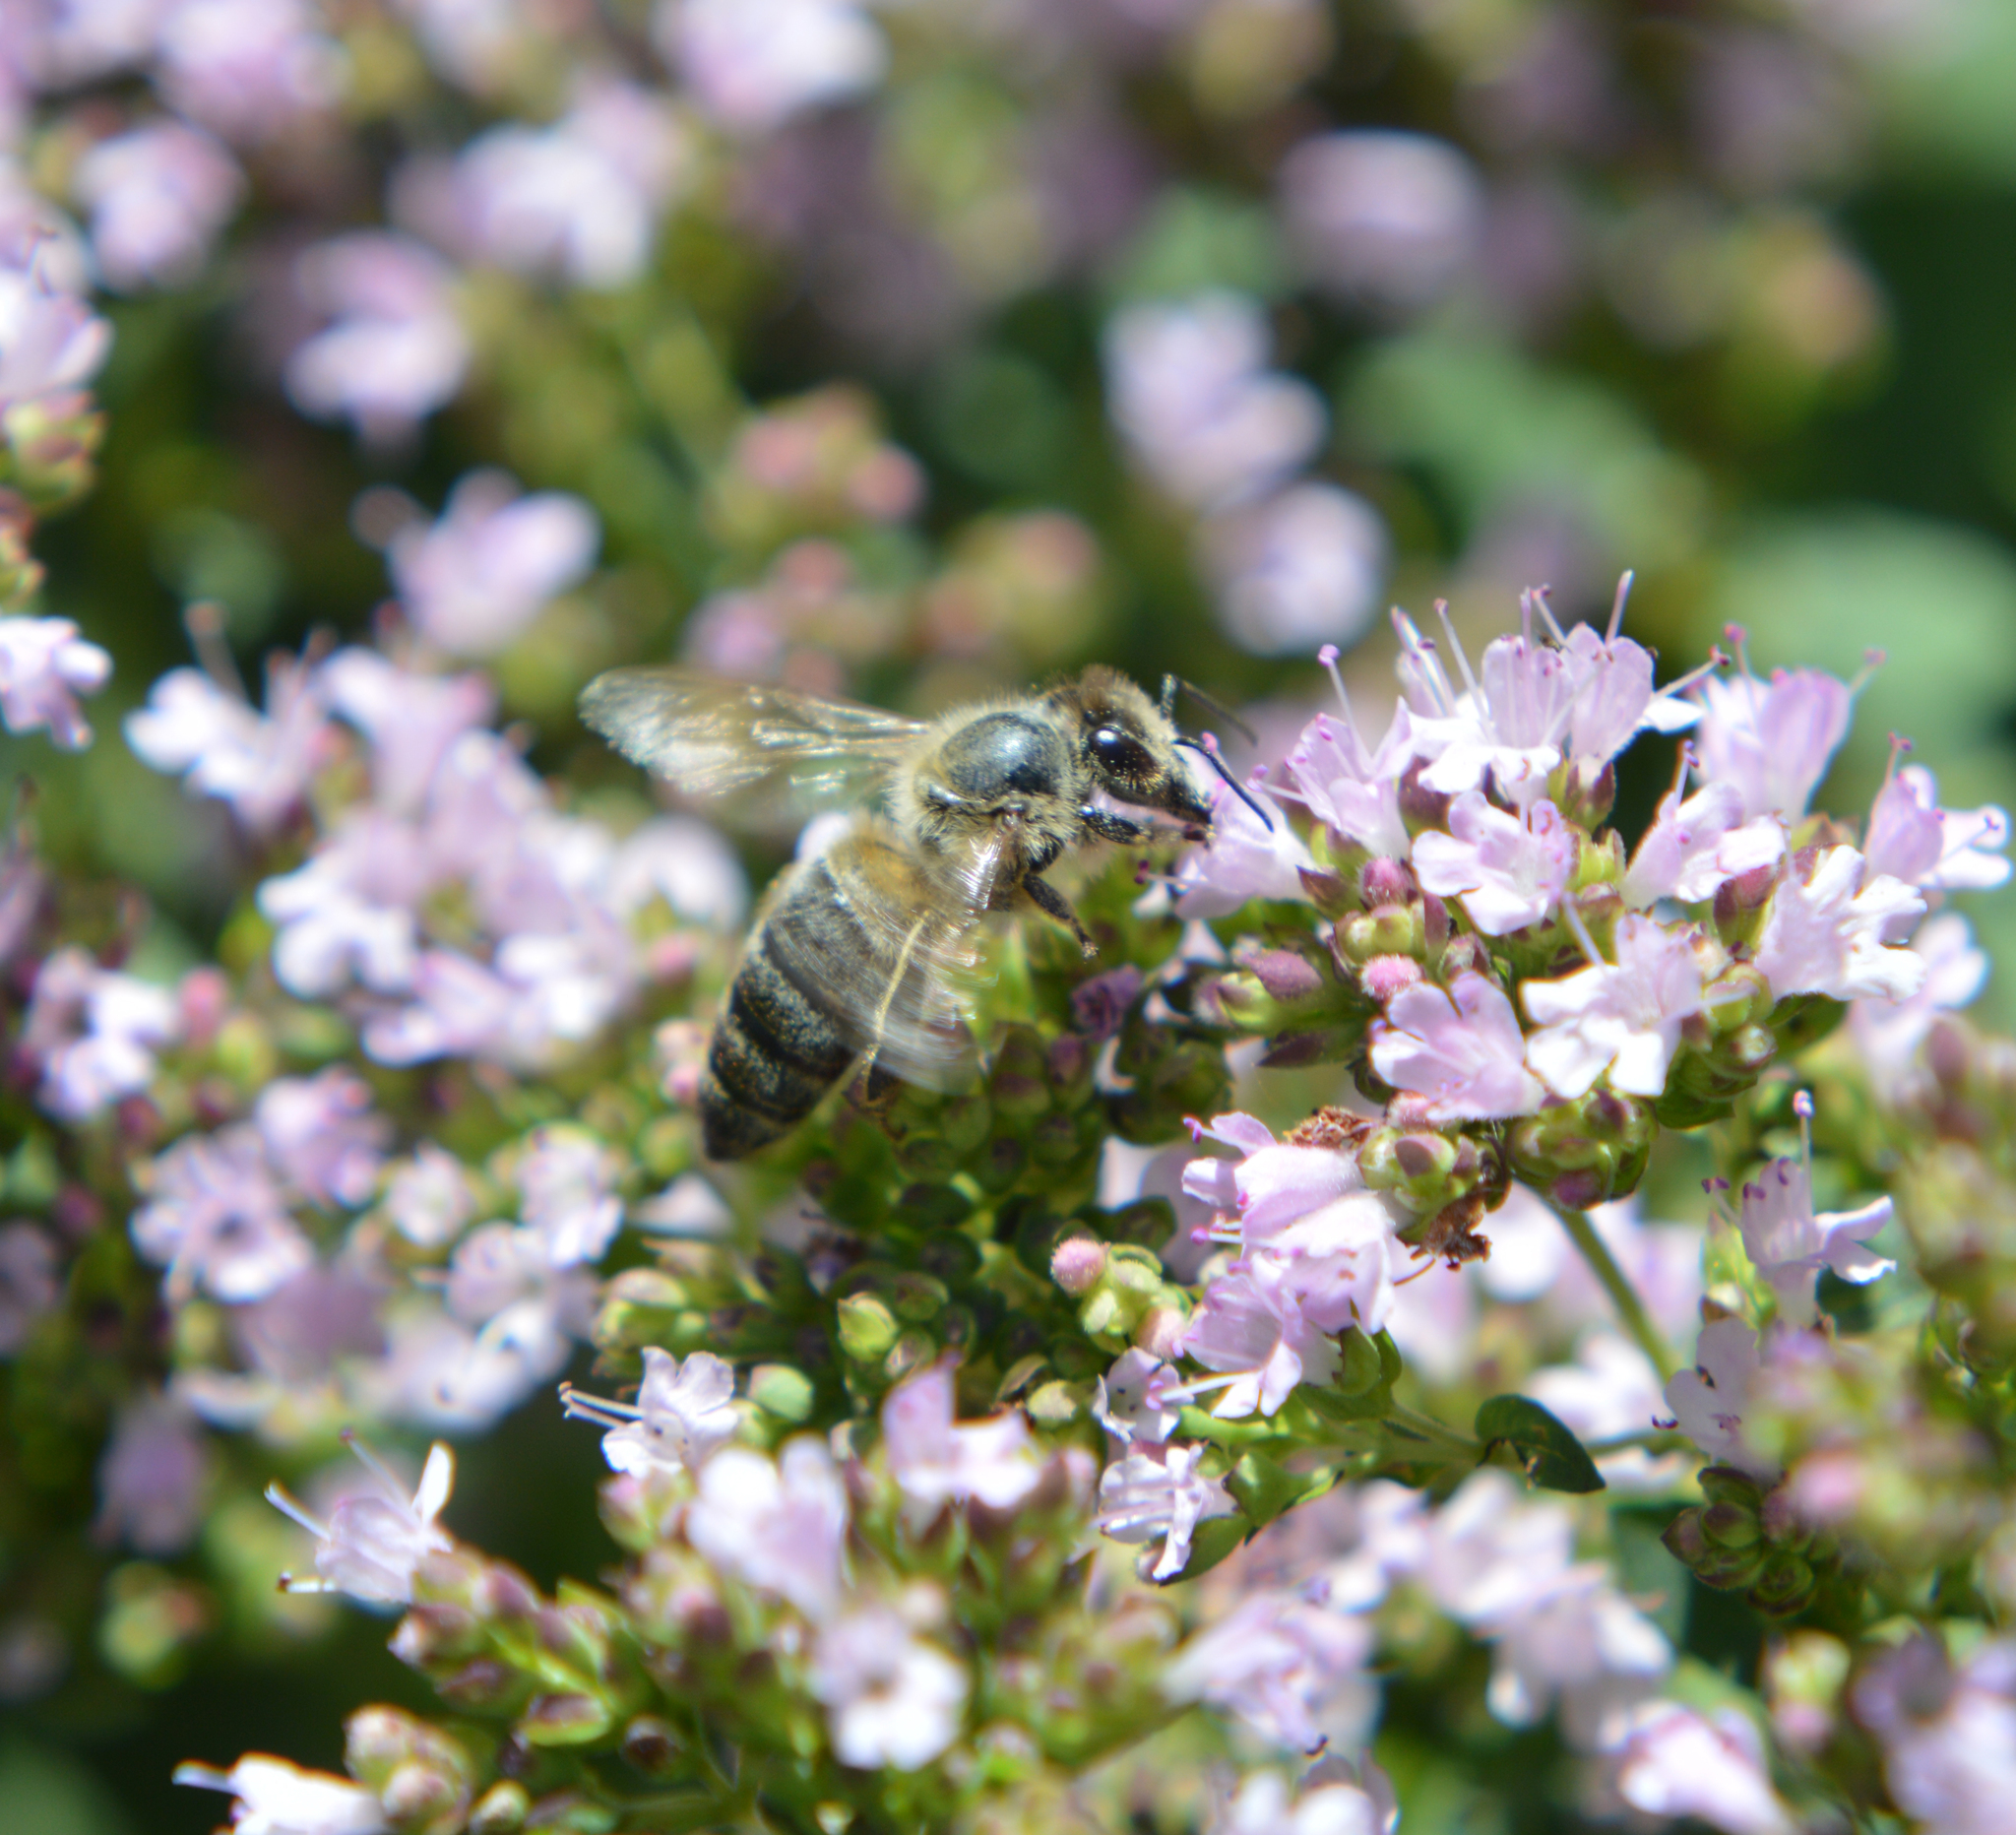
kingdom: Animalia
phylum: Arthropoda
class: Insecta
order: Hymenoptera
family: Apidae
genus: Apis
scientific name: Apis mellifera
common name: Honey bee
